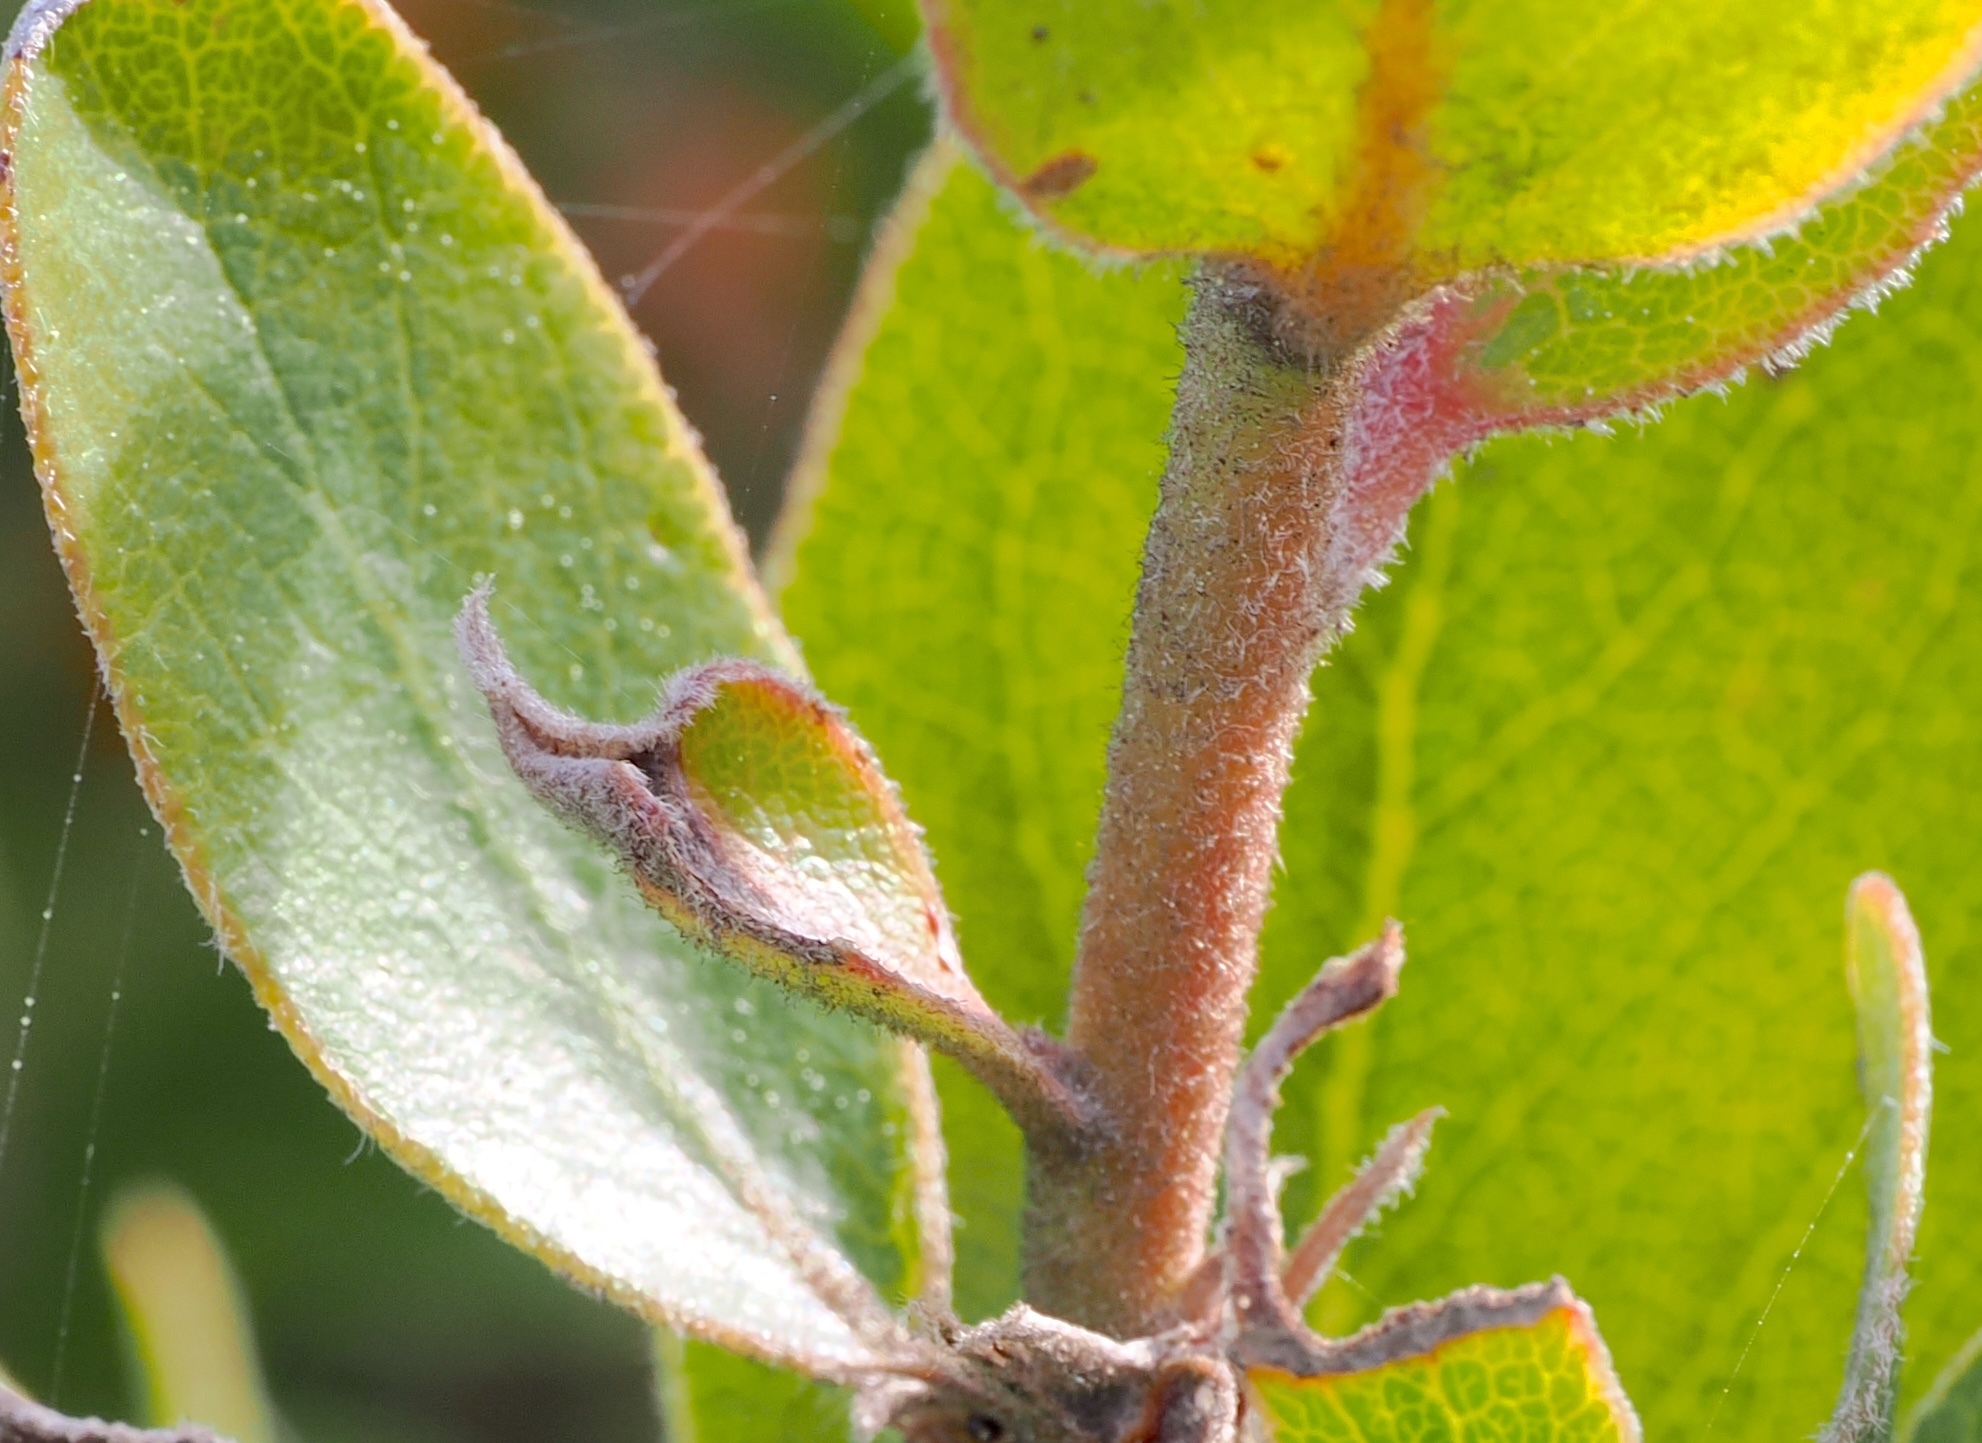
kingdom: Plantae
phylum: Tracheophyta
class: Magnoliopsida
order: Ericales
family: Ericaceae
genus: Arctostaphylos
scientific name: Arctostaphylos tomentosa
